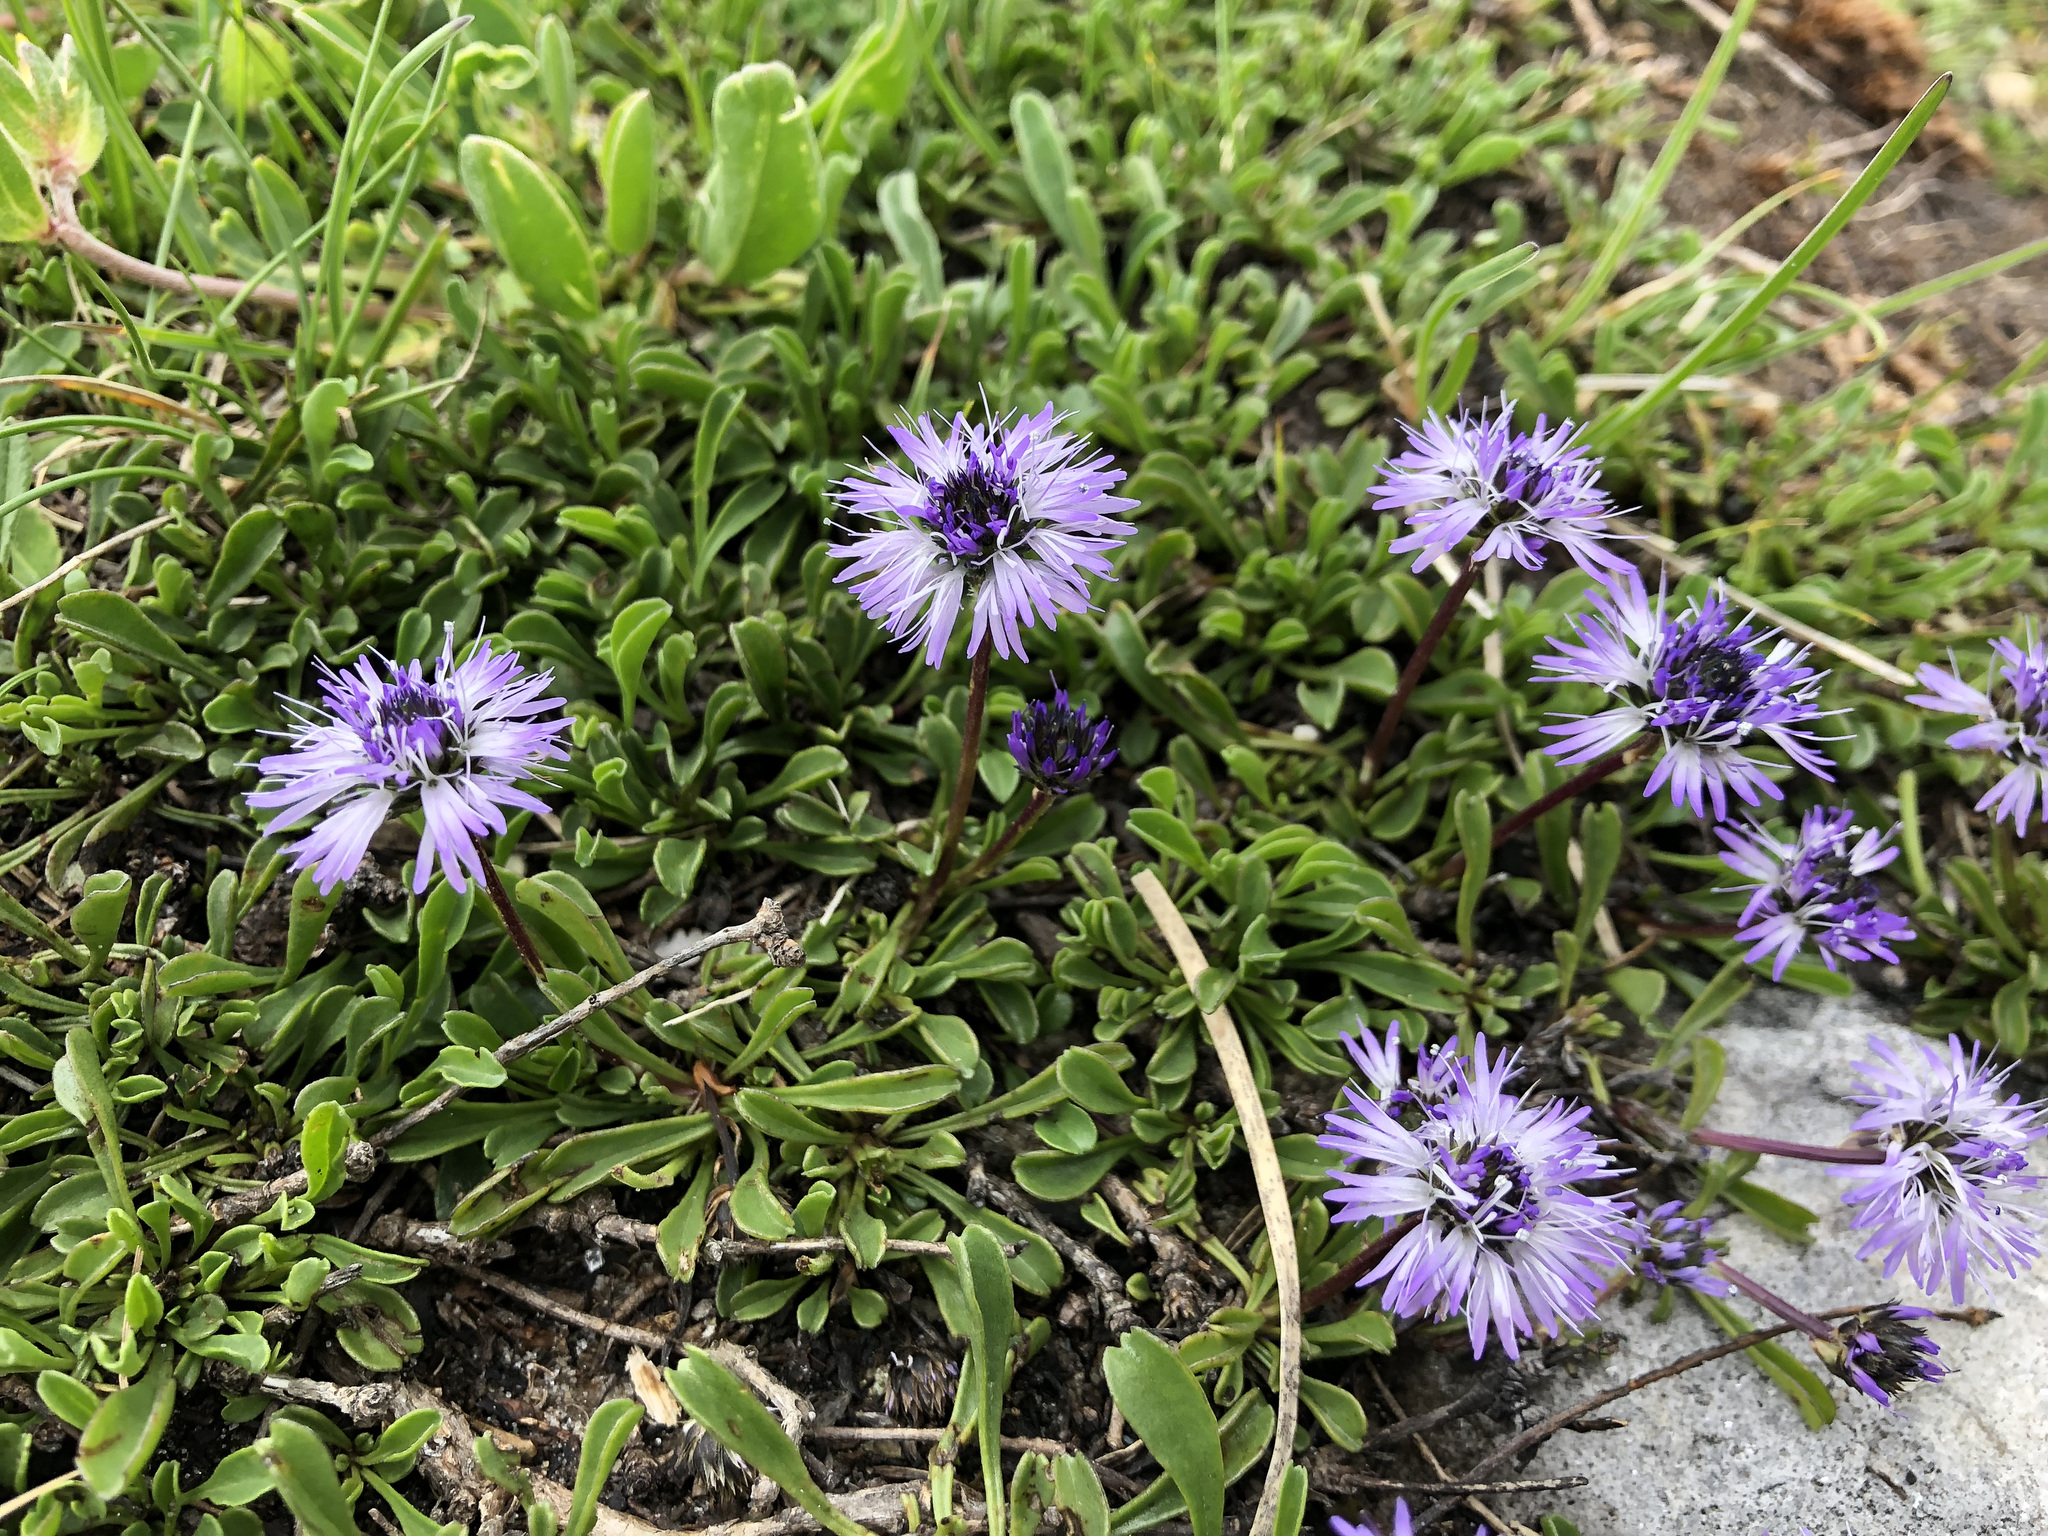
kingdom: Plantae
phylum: Tracheophyta
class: Magnoliopsida
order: Lamiales
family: Plantaginaceae
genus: Globularia
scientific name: Globularia cordifolia
